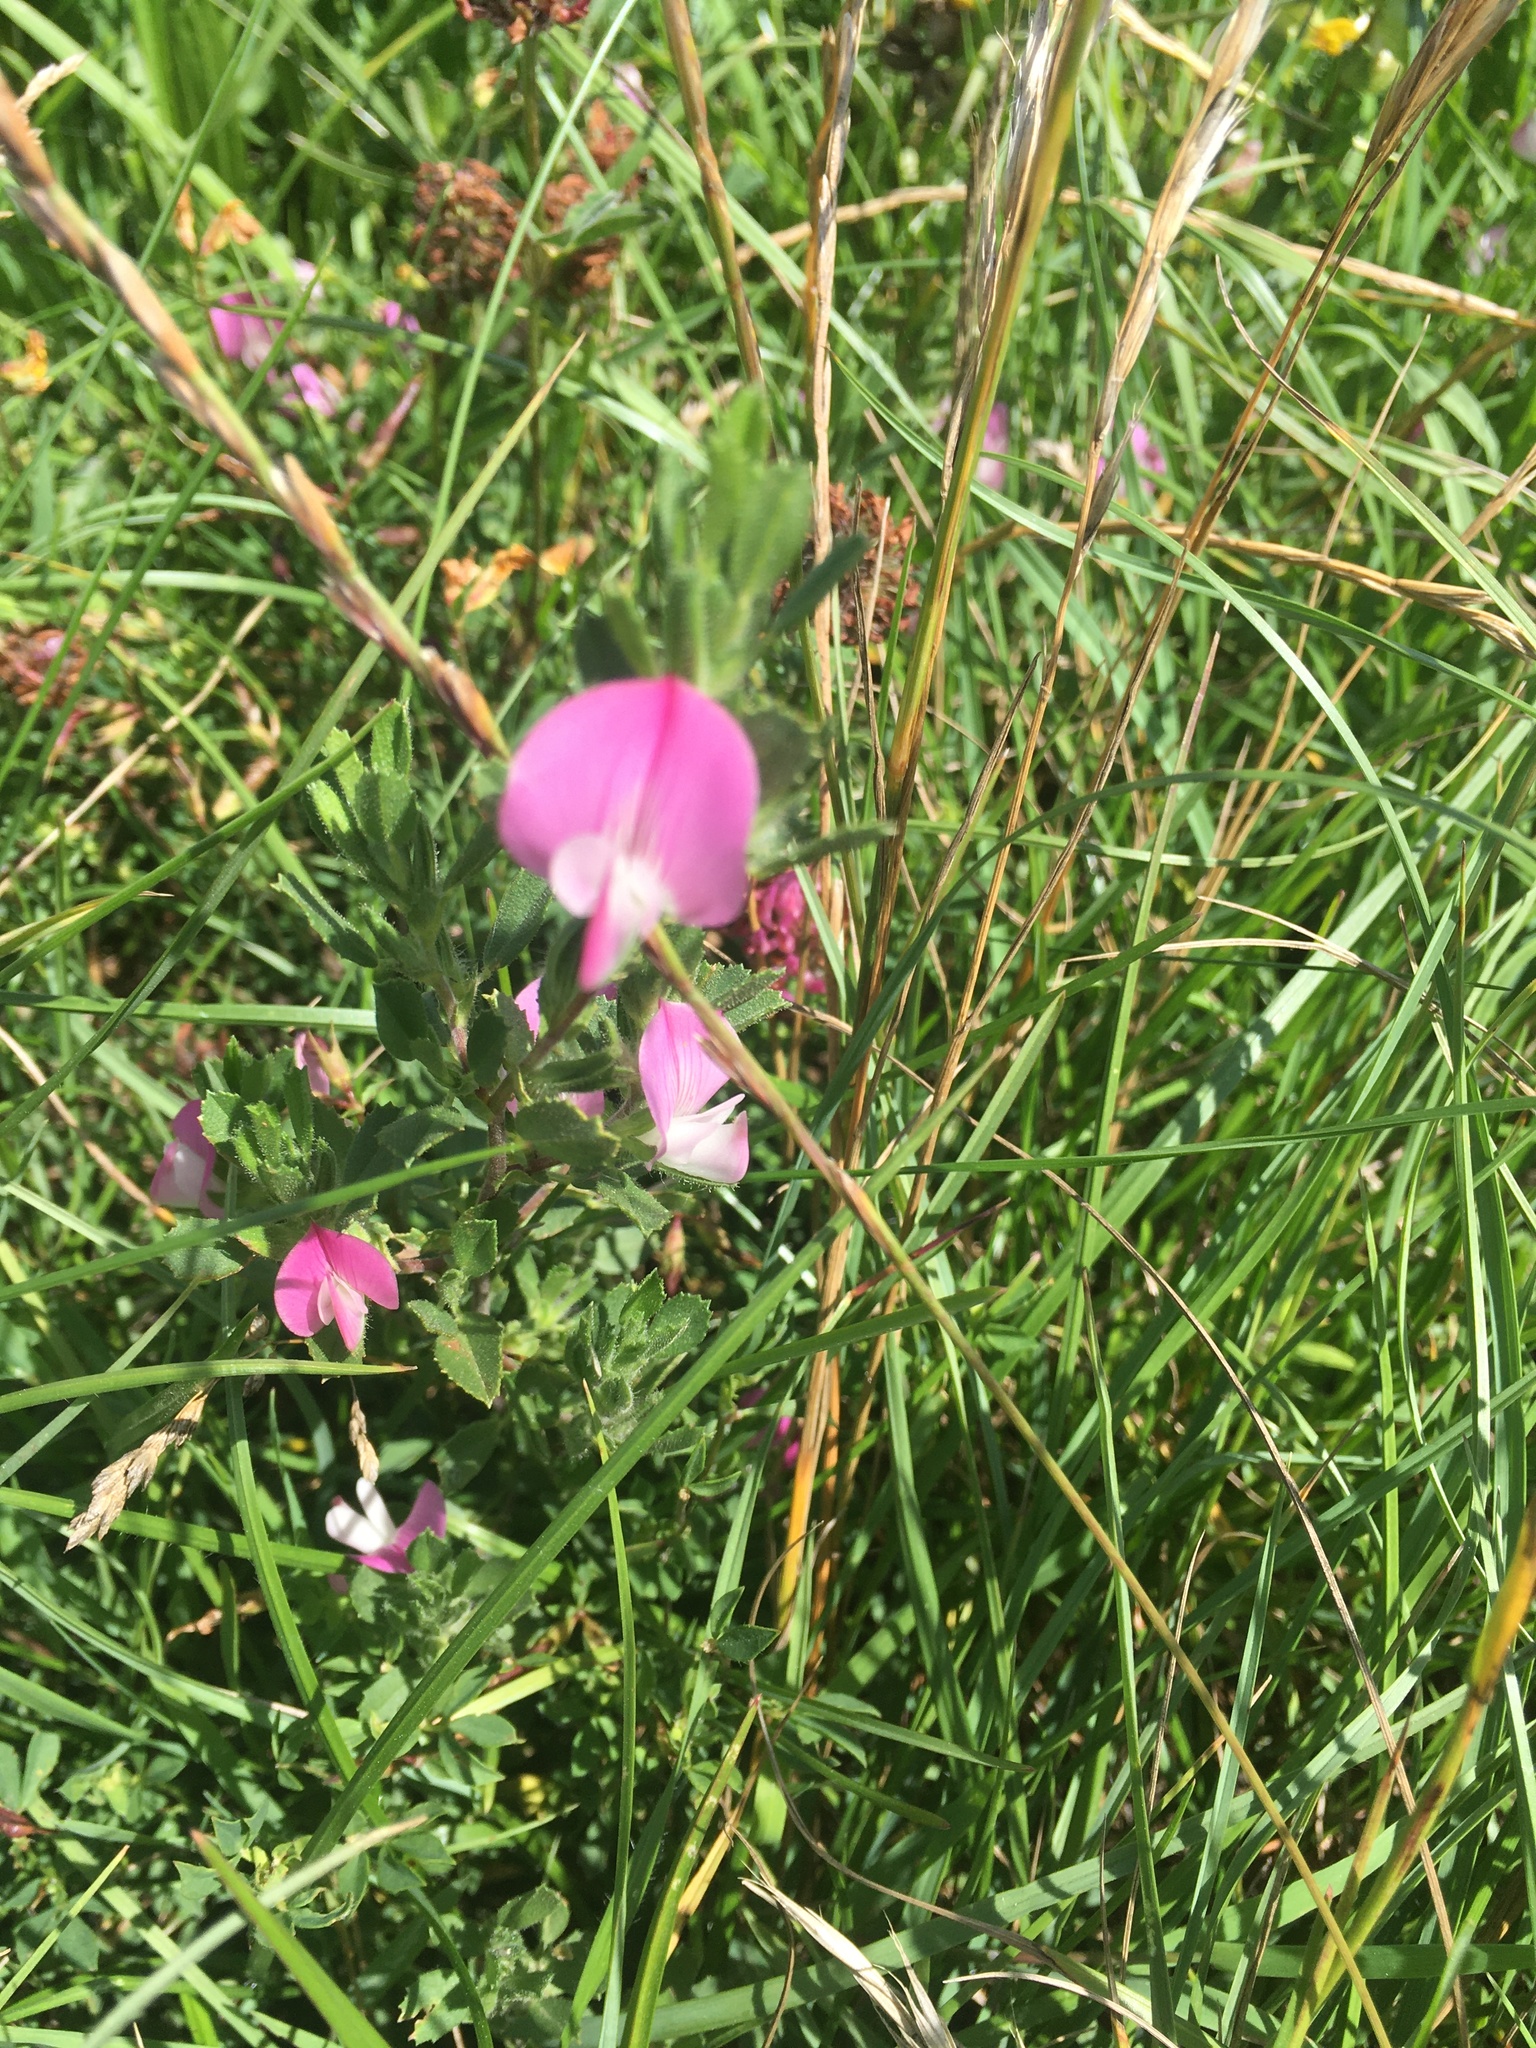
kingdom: Plantae
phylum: Tracheophyta
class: Magnoliopsida
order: Fabales
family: Fabaceae
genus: Ononis
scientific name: Ononis spinosa
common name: Spiny restharrow
